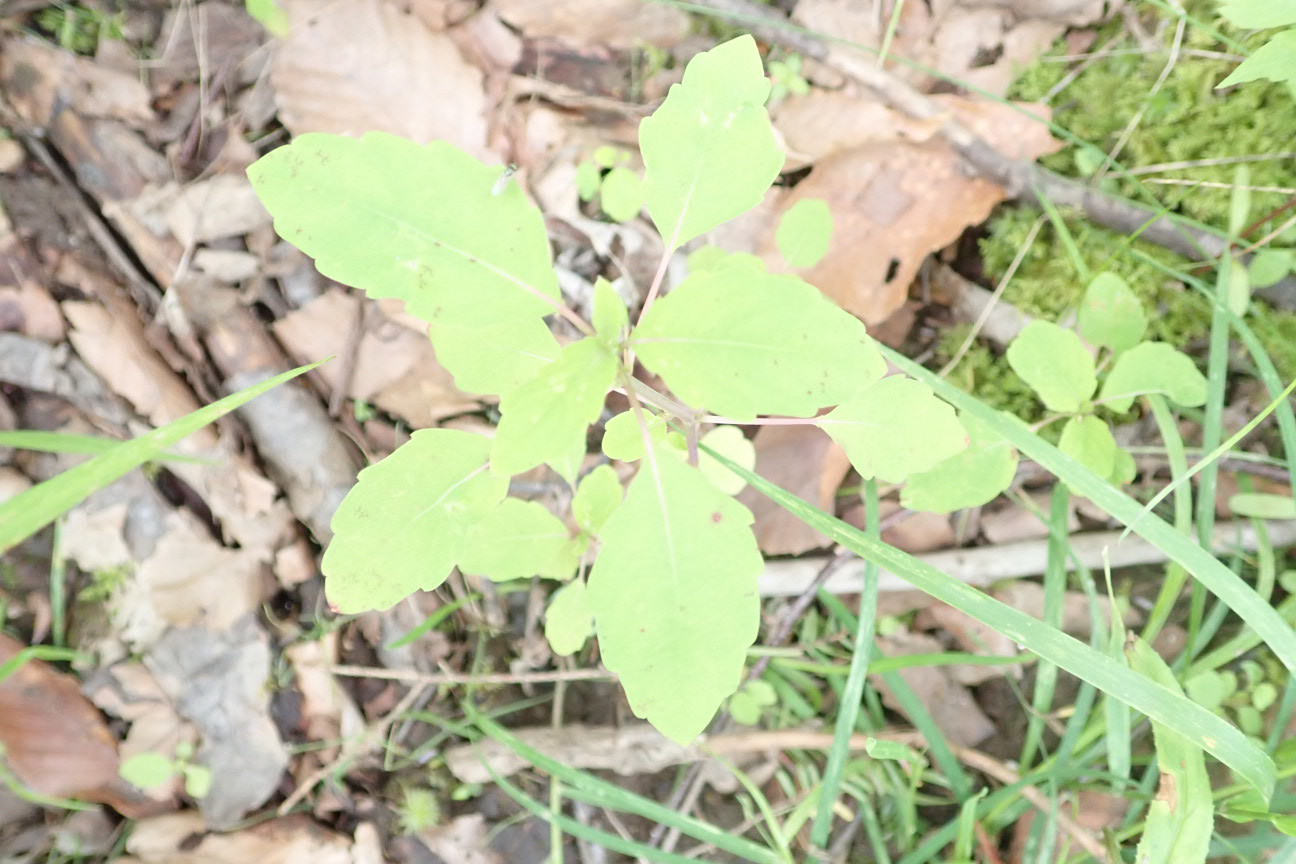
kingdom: Plantae
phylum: Tracheophyta
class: Magnoliopsida
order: Ericales
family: Balsaminaceae
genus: Impatiens
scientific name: Impatiens
